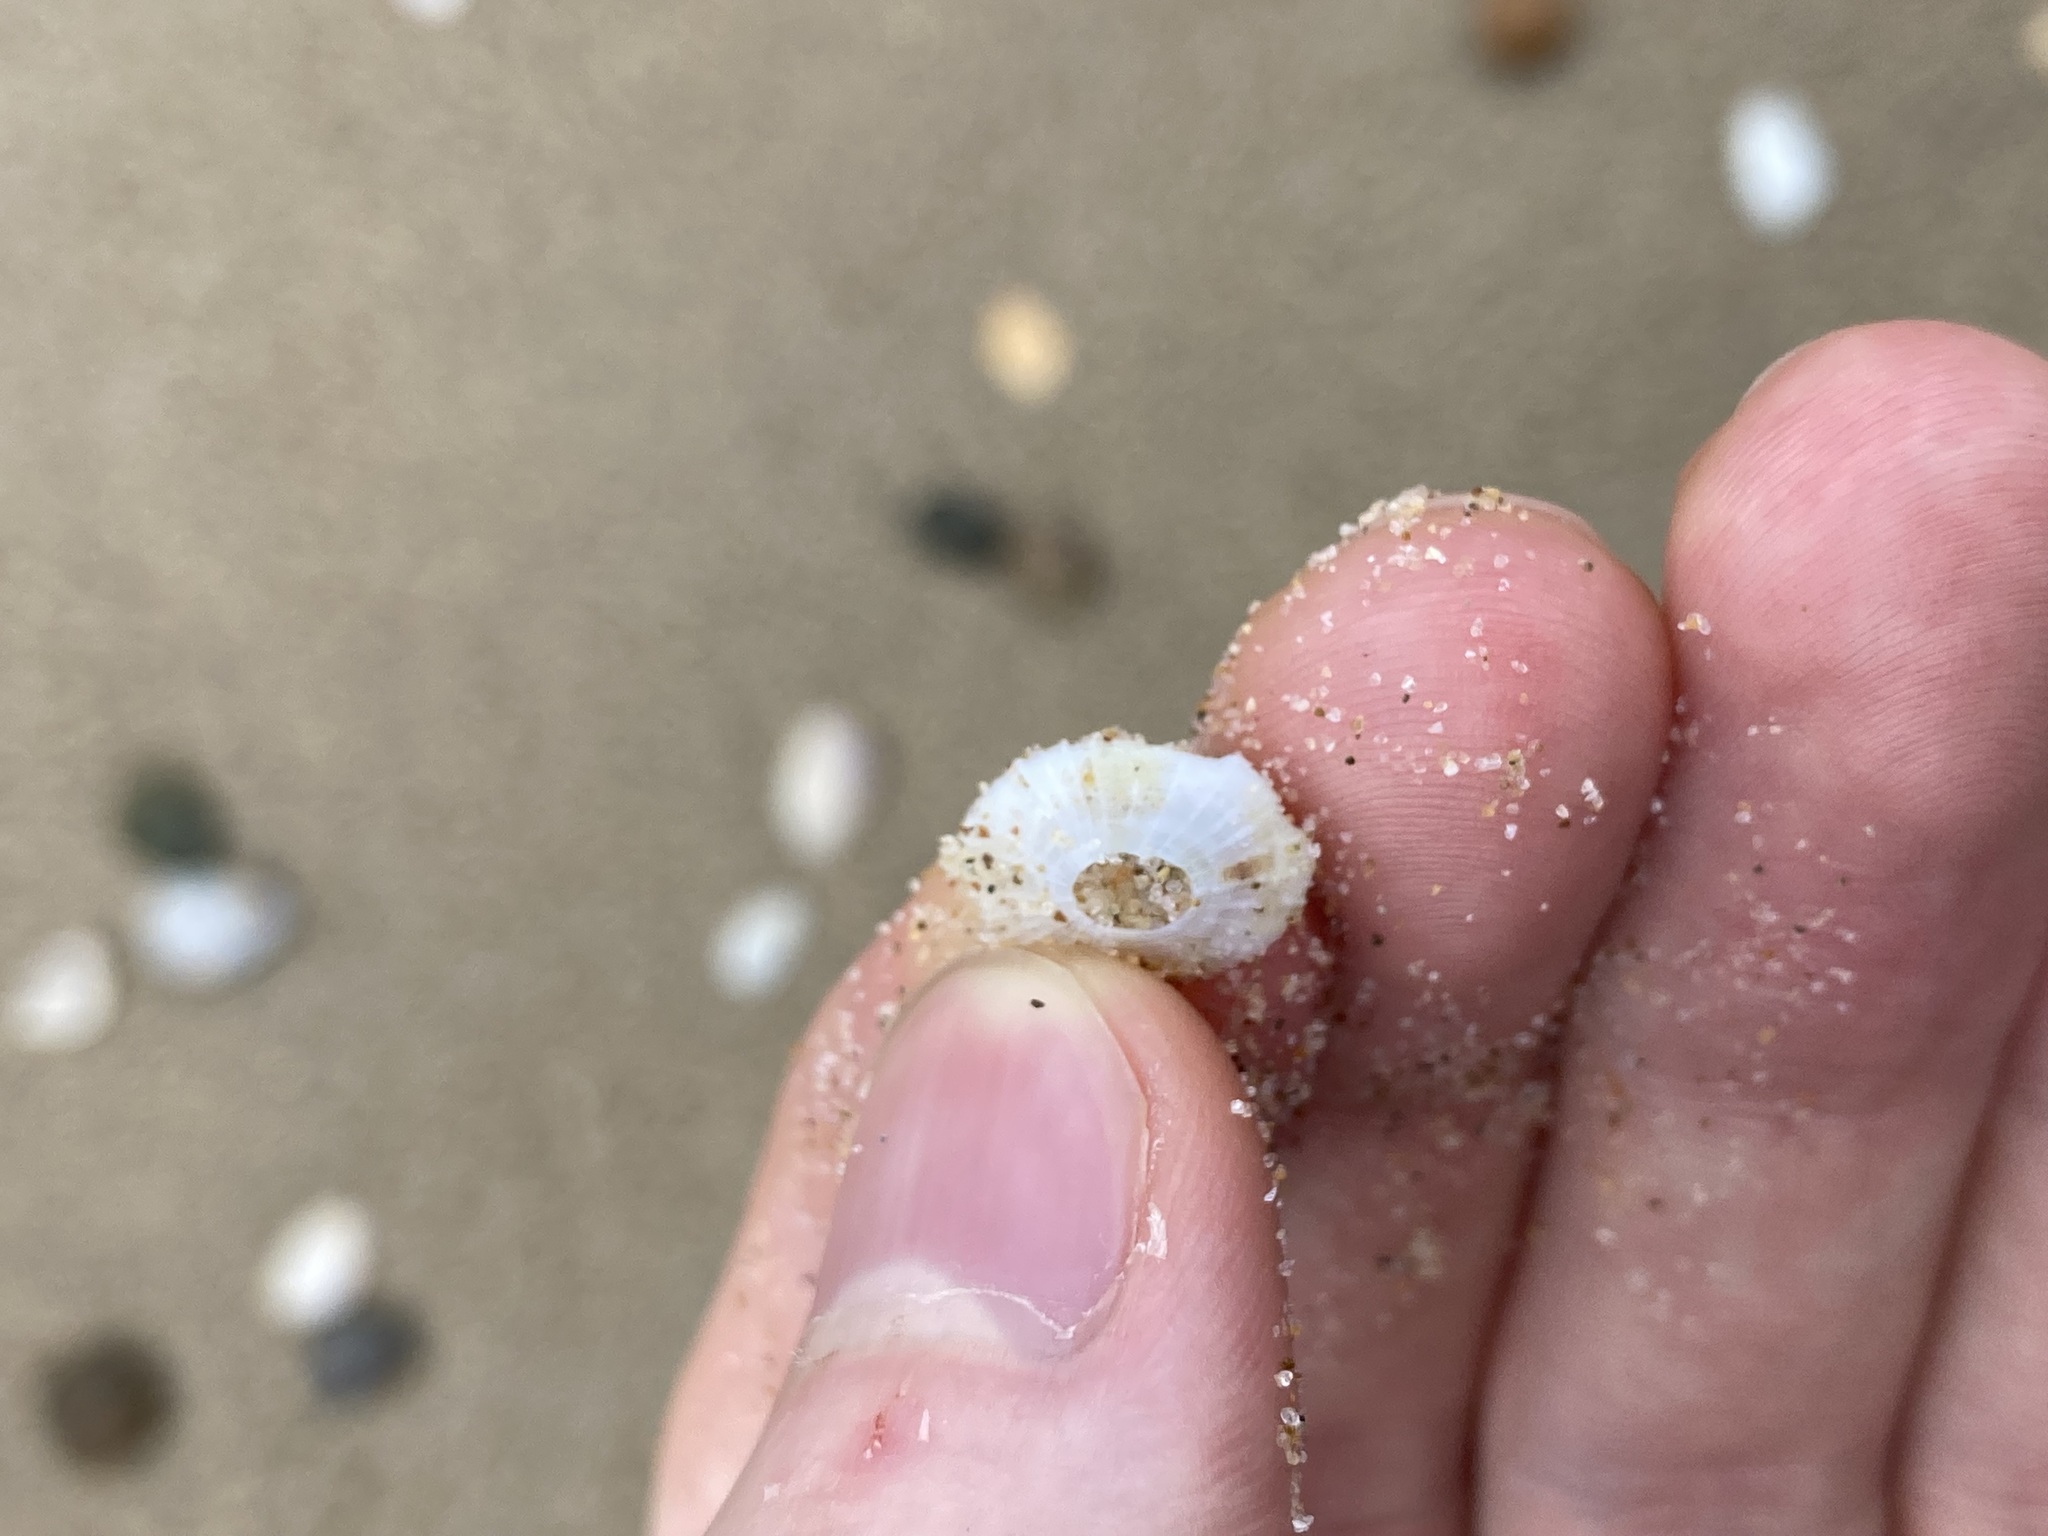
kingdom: Animalia
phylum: Mollusca
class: Gastropoda
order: Lepetellida
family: Fissurellidae
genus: Montfortula
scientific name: Montfortula rugosa
